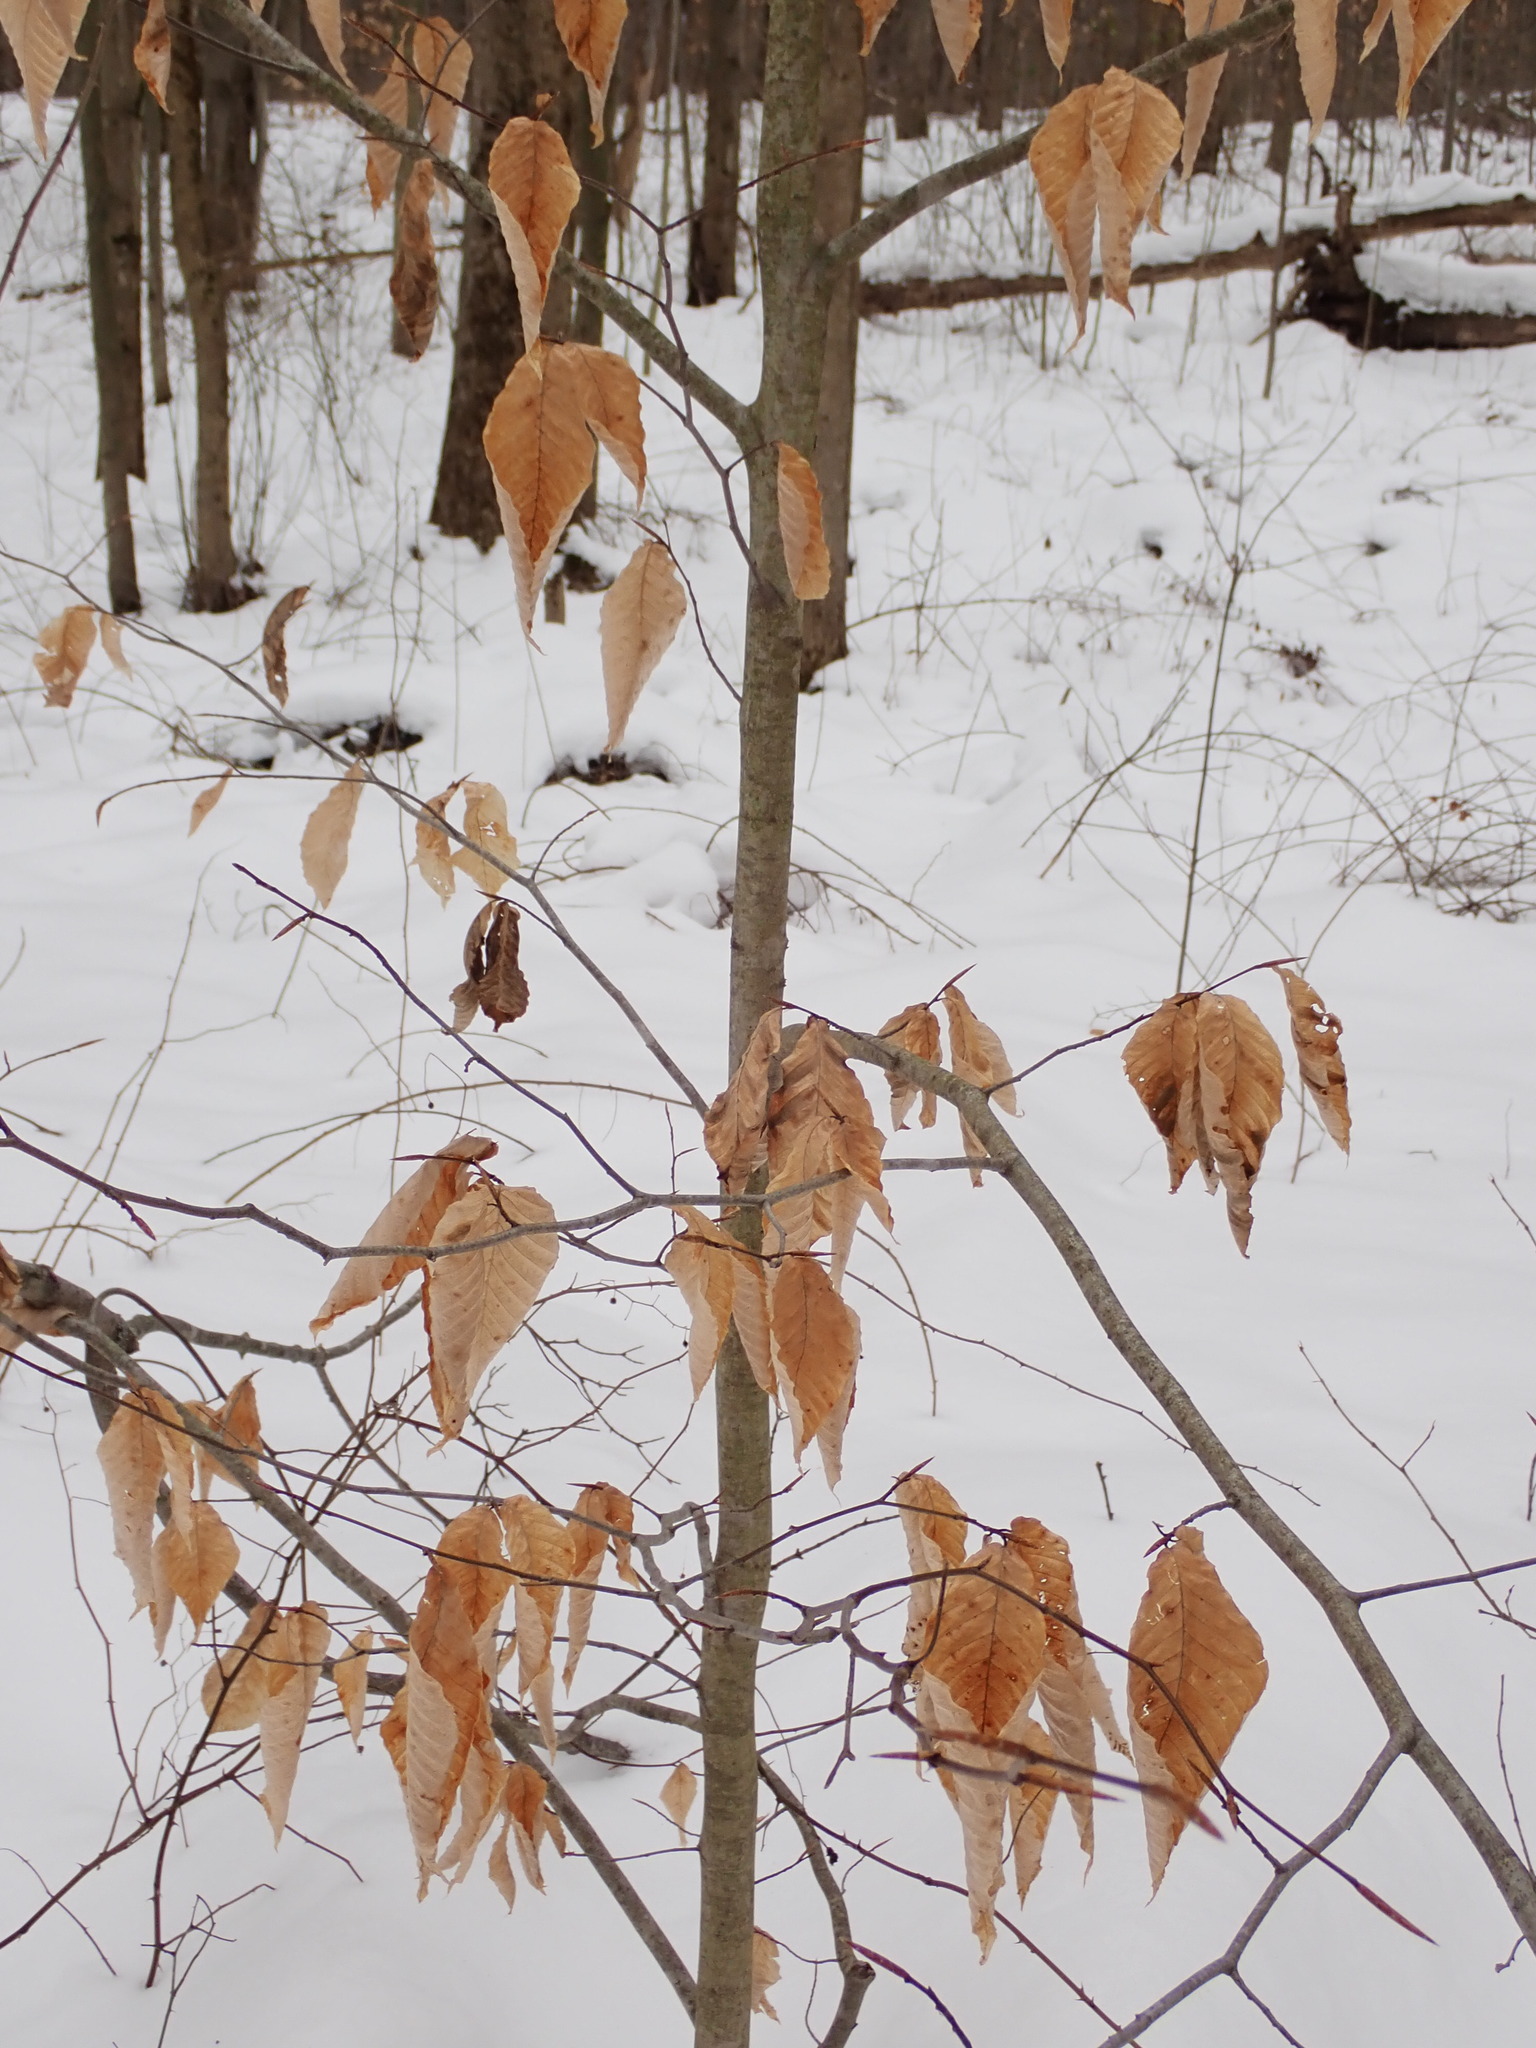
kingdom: Plantae
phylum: Tracheophyta
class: Magnoliopsida
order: Fagales
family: Fagaceae
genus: Fagus
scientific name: Fagus grandifolia
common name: American beech
